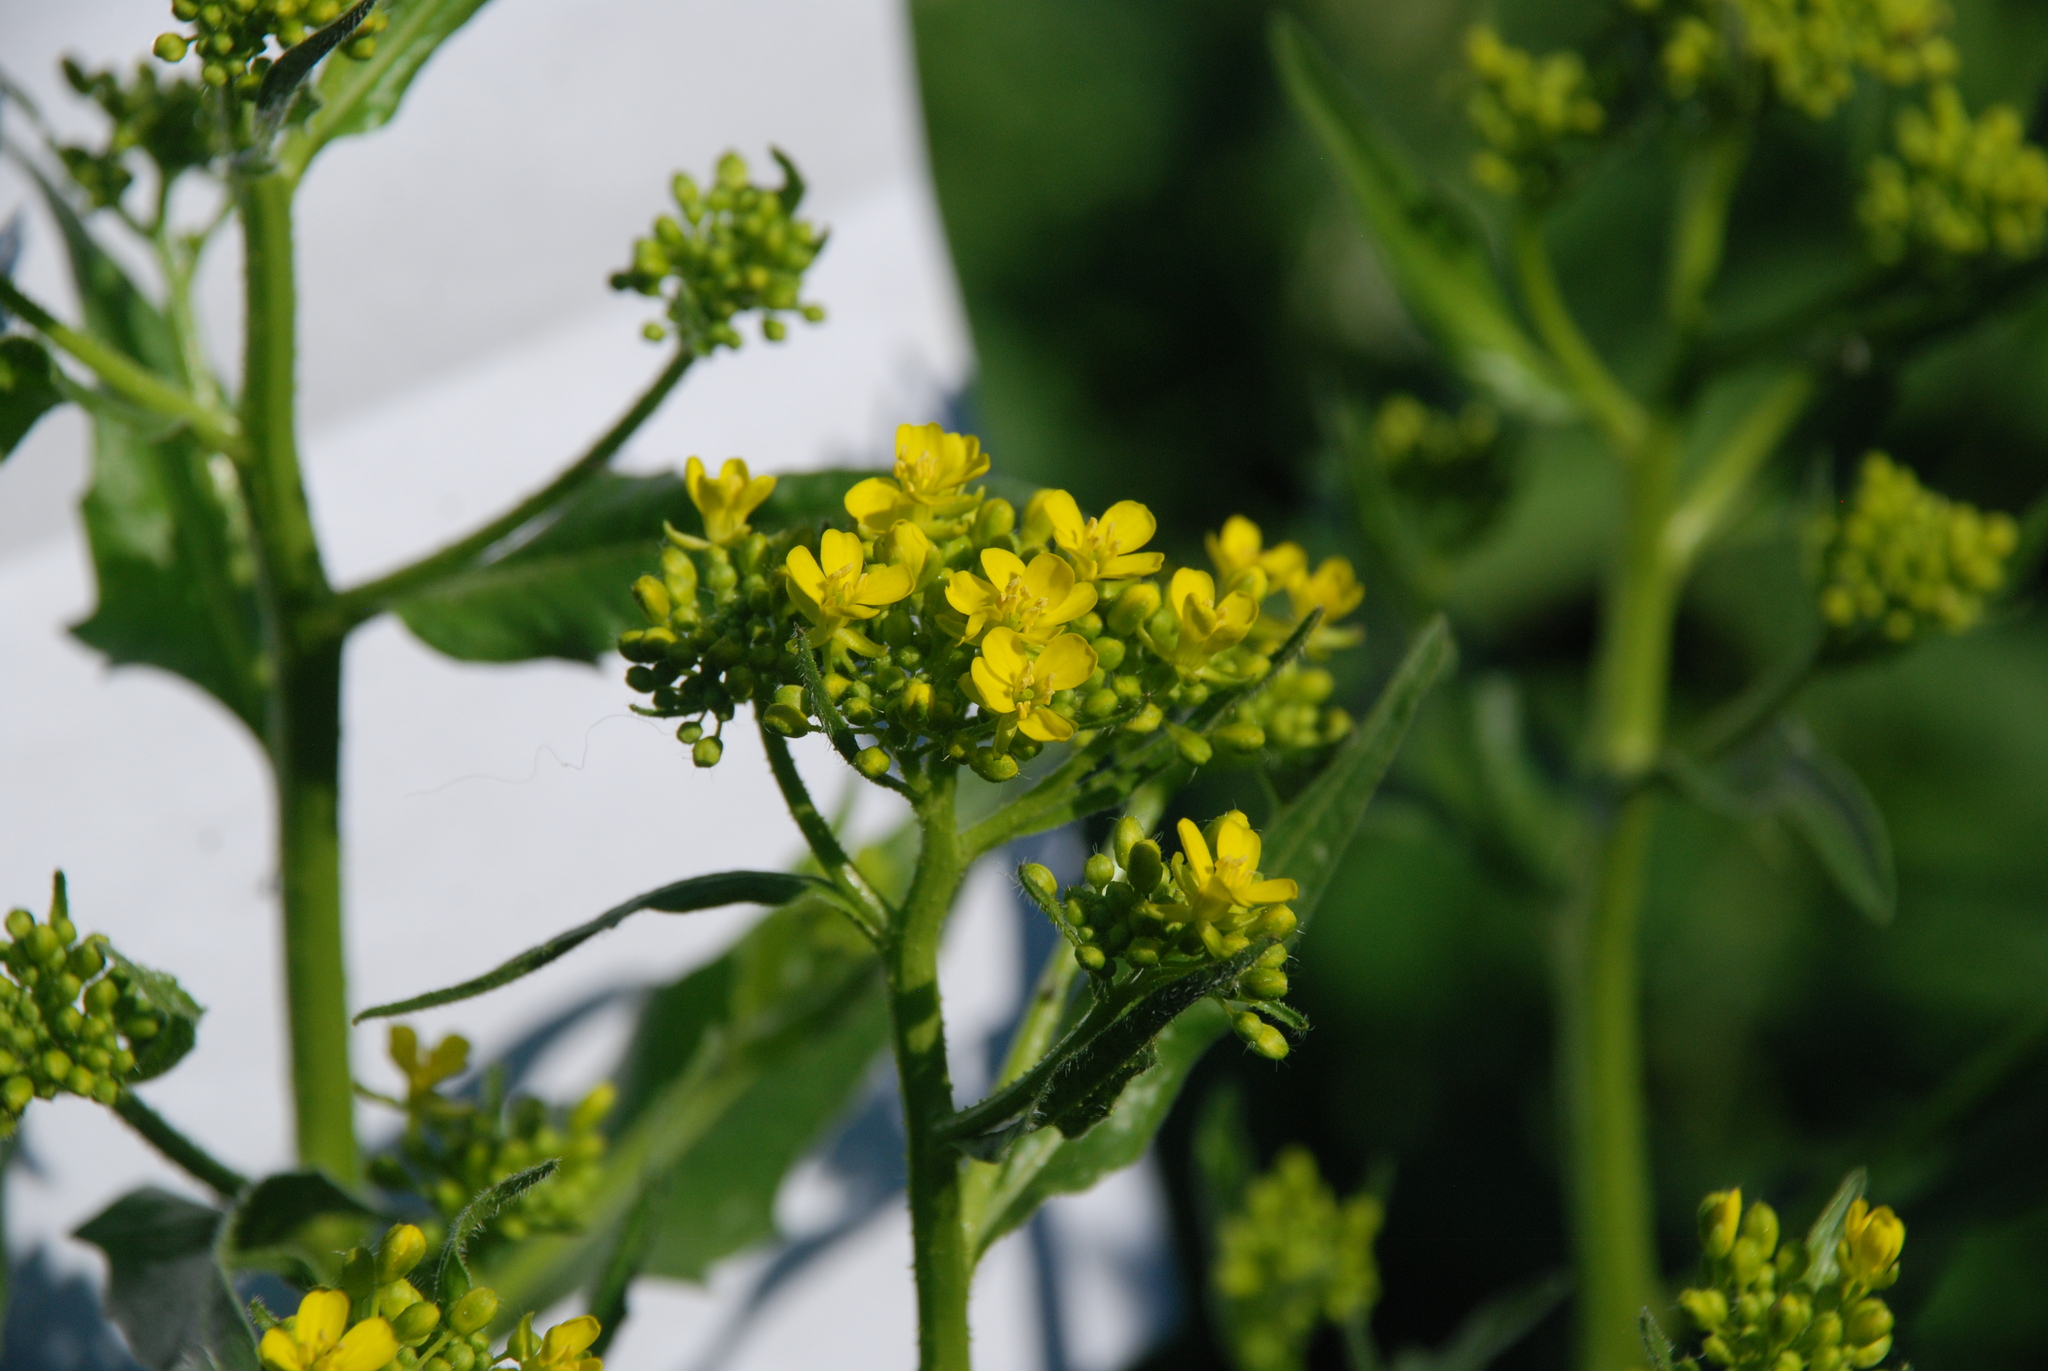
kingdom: Plantae
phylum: Tracheophyta
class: Magnoliopsida
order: Brassicales
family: Brassicaceae
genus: Bunias
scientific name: Bunias orientalis
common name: Warty-cabbage
